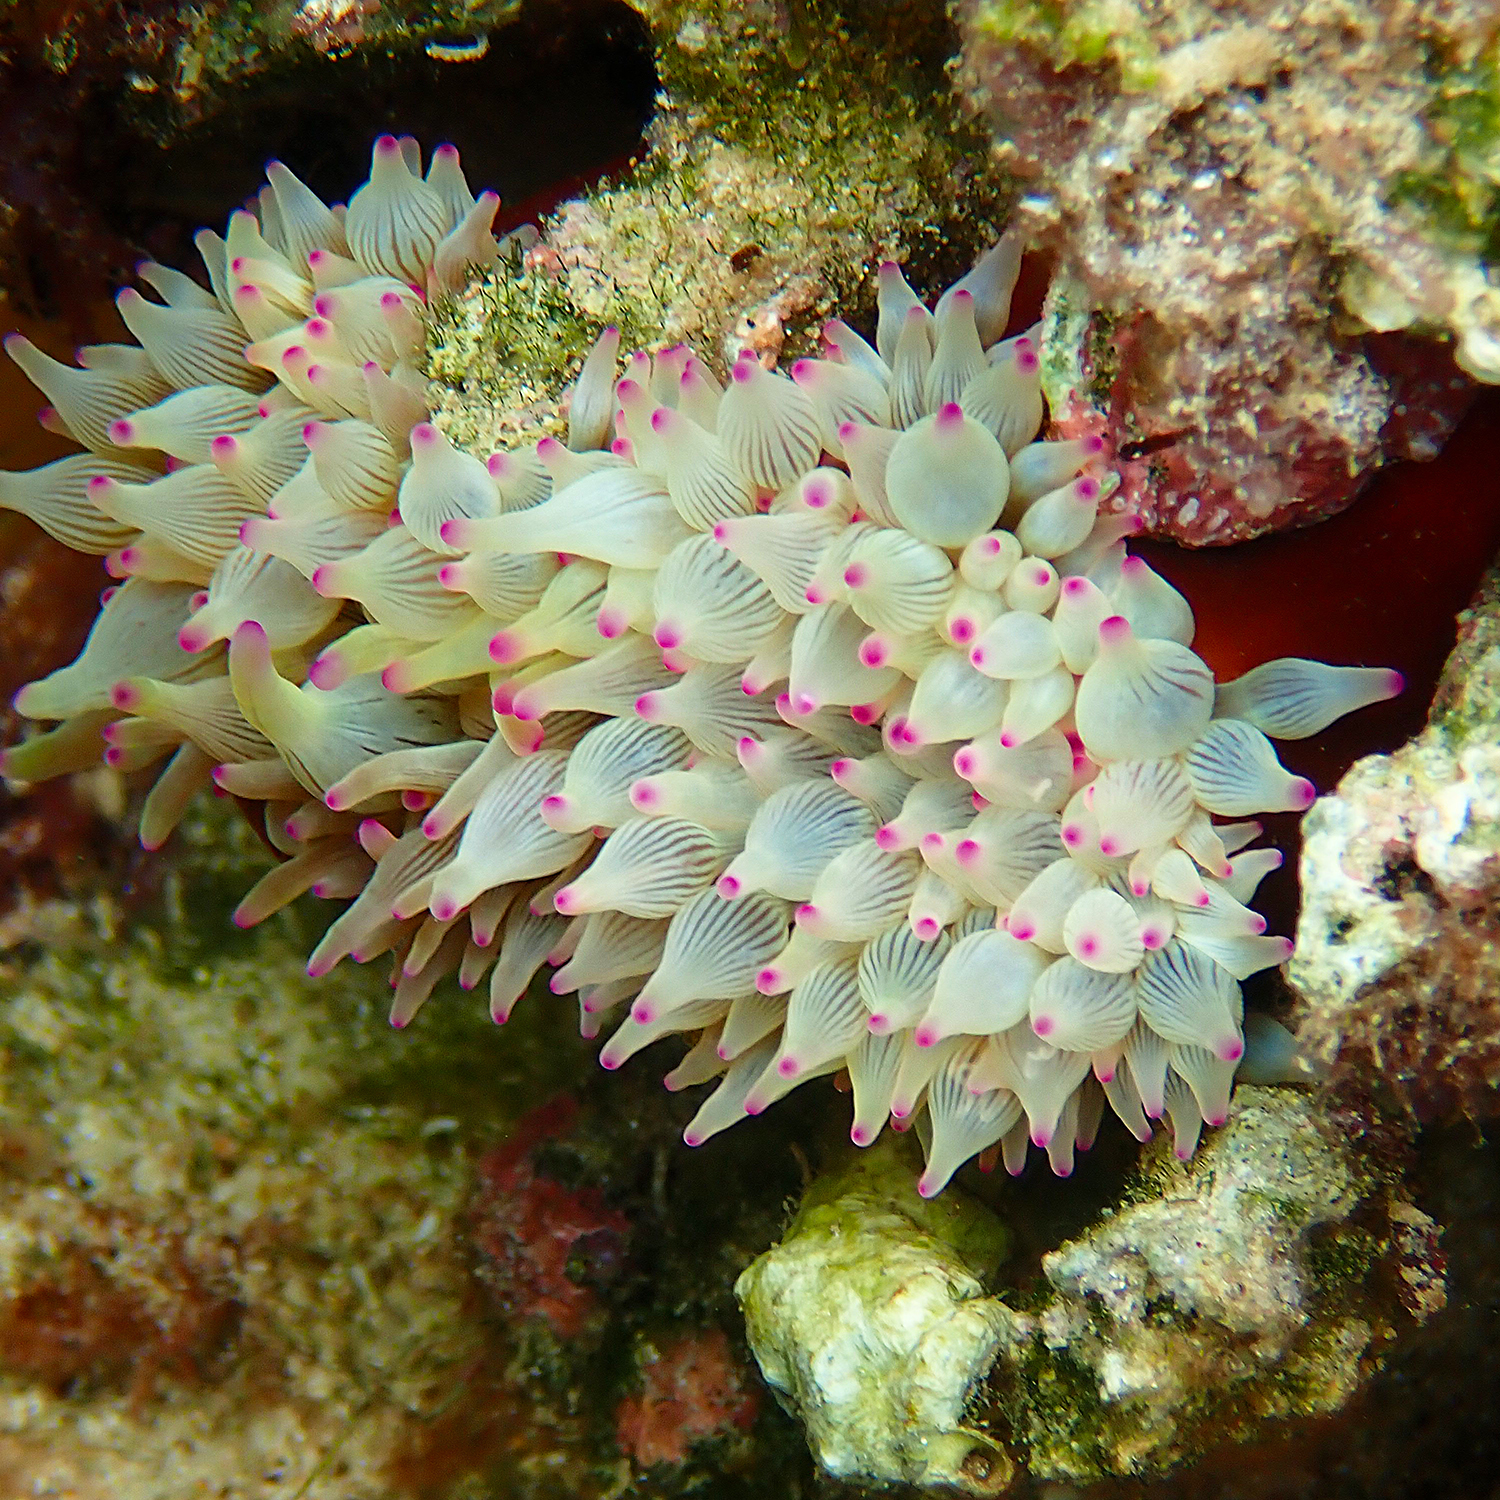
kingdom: Animalia
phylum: Cnidaria
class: Anthozoa
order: Actiniaria
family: Actiniidae
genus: Entacmaea
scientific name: Entacmaea quadricolor
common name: Bulb tentacle sea anemone
